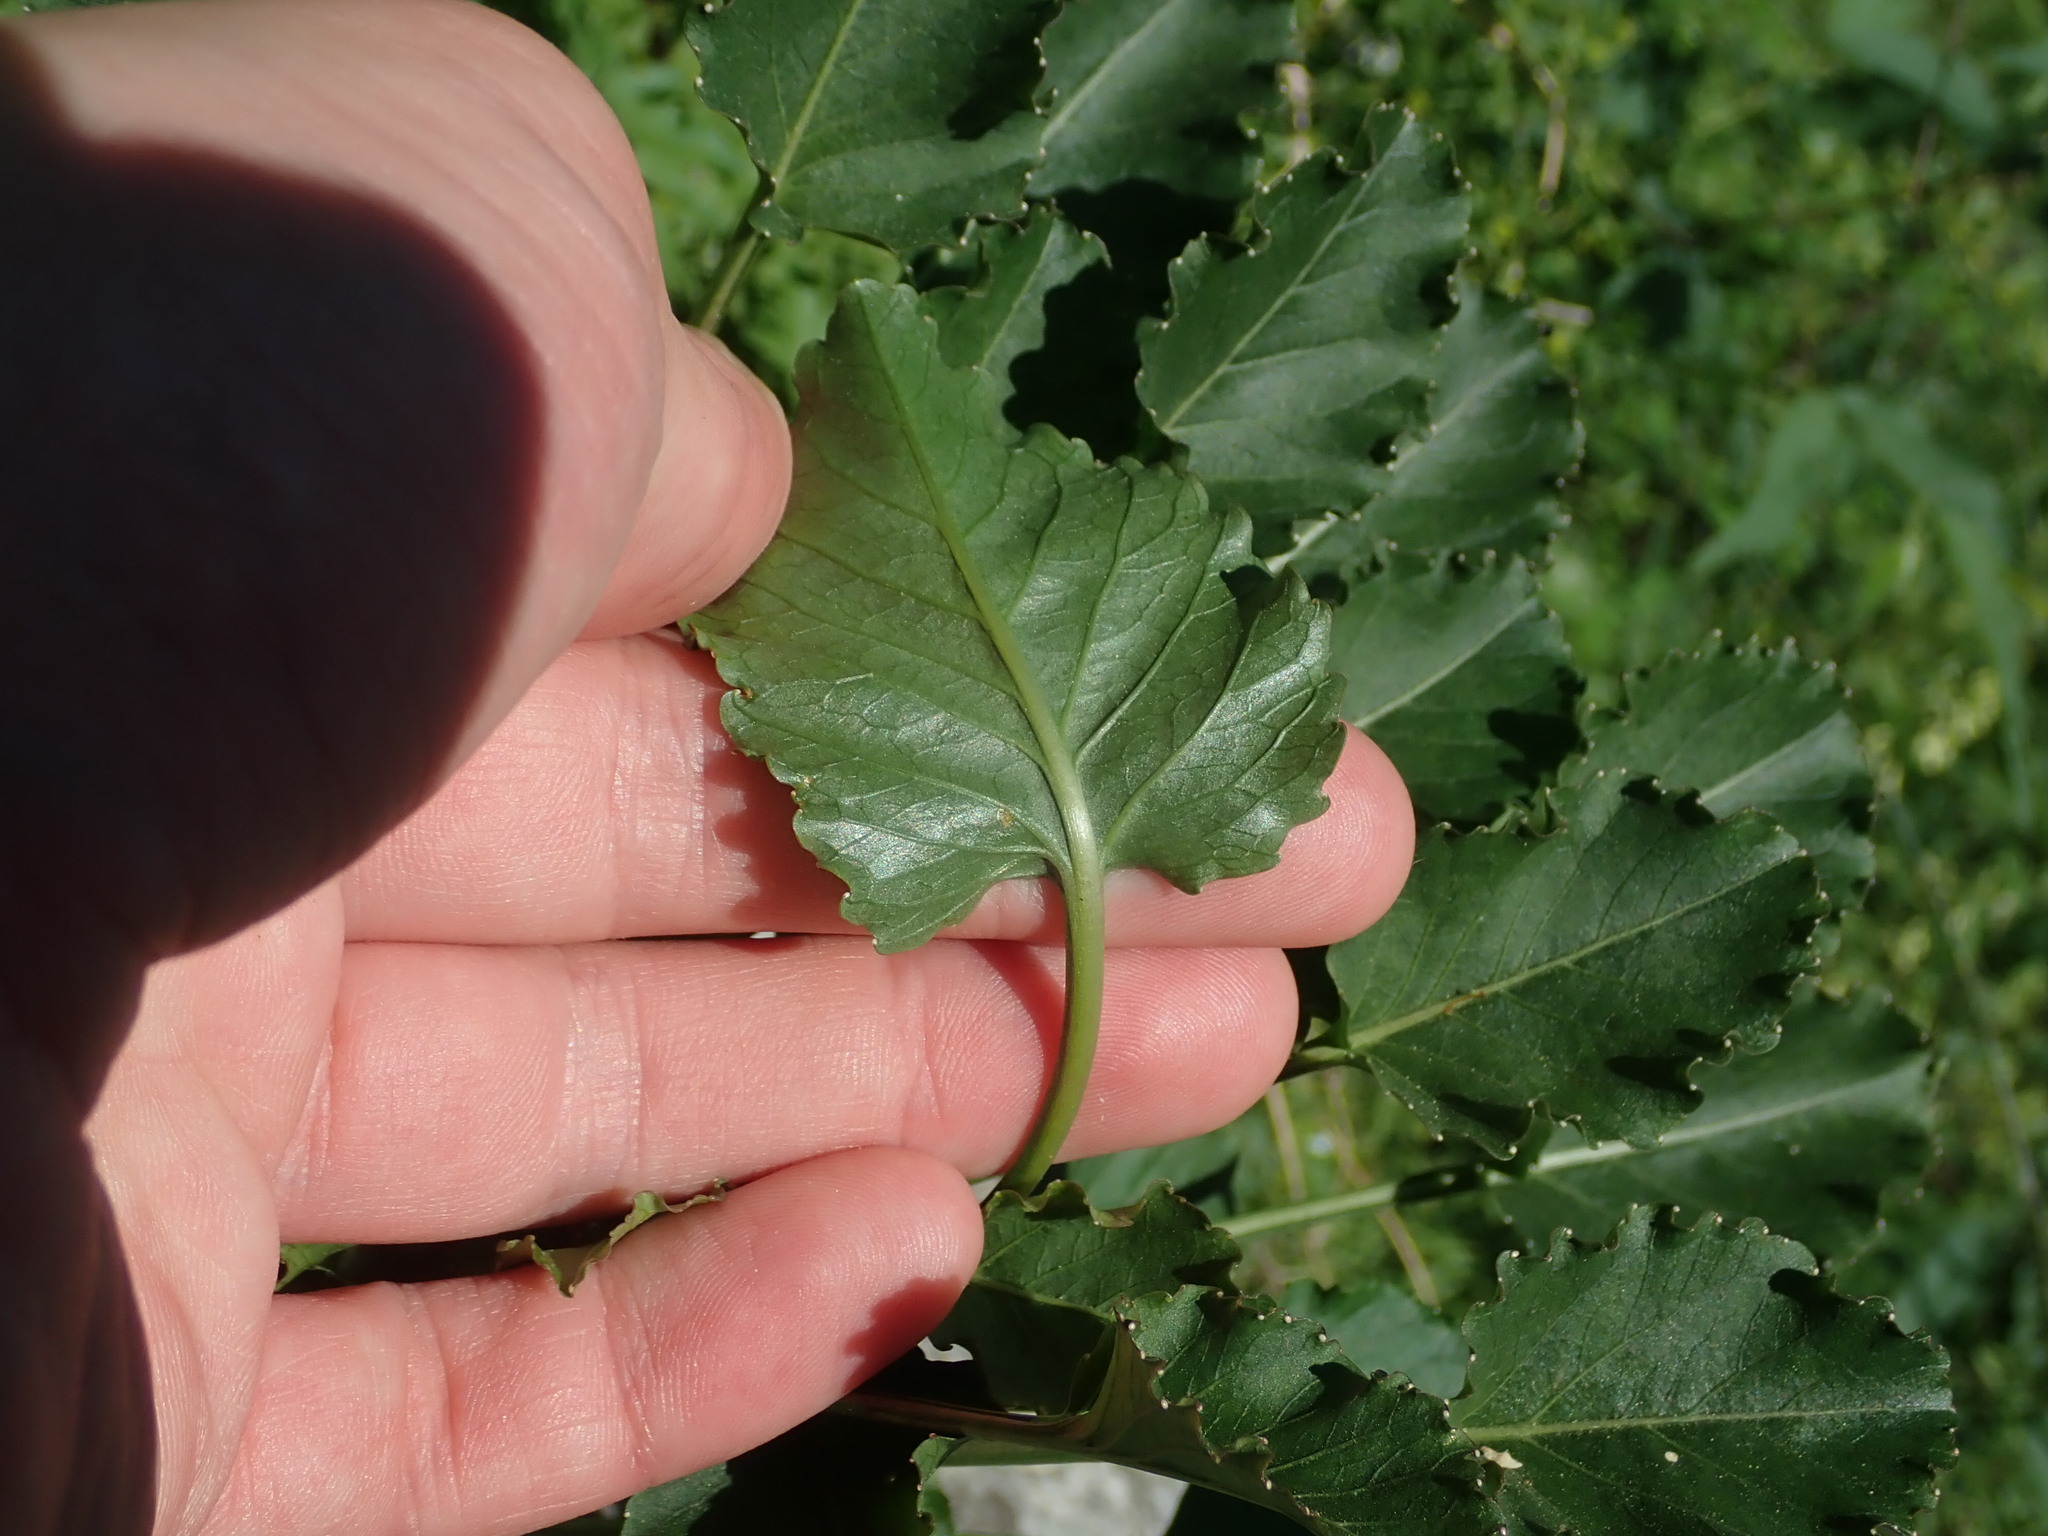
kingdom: Plantae
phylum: Tracheophyta
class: Magnoliopsida
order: Asterales
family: Campanulaceae
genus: Campanula
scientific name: Campanula pyramidalis
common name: Chimney bellflower
